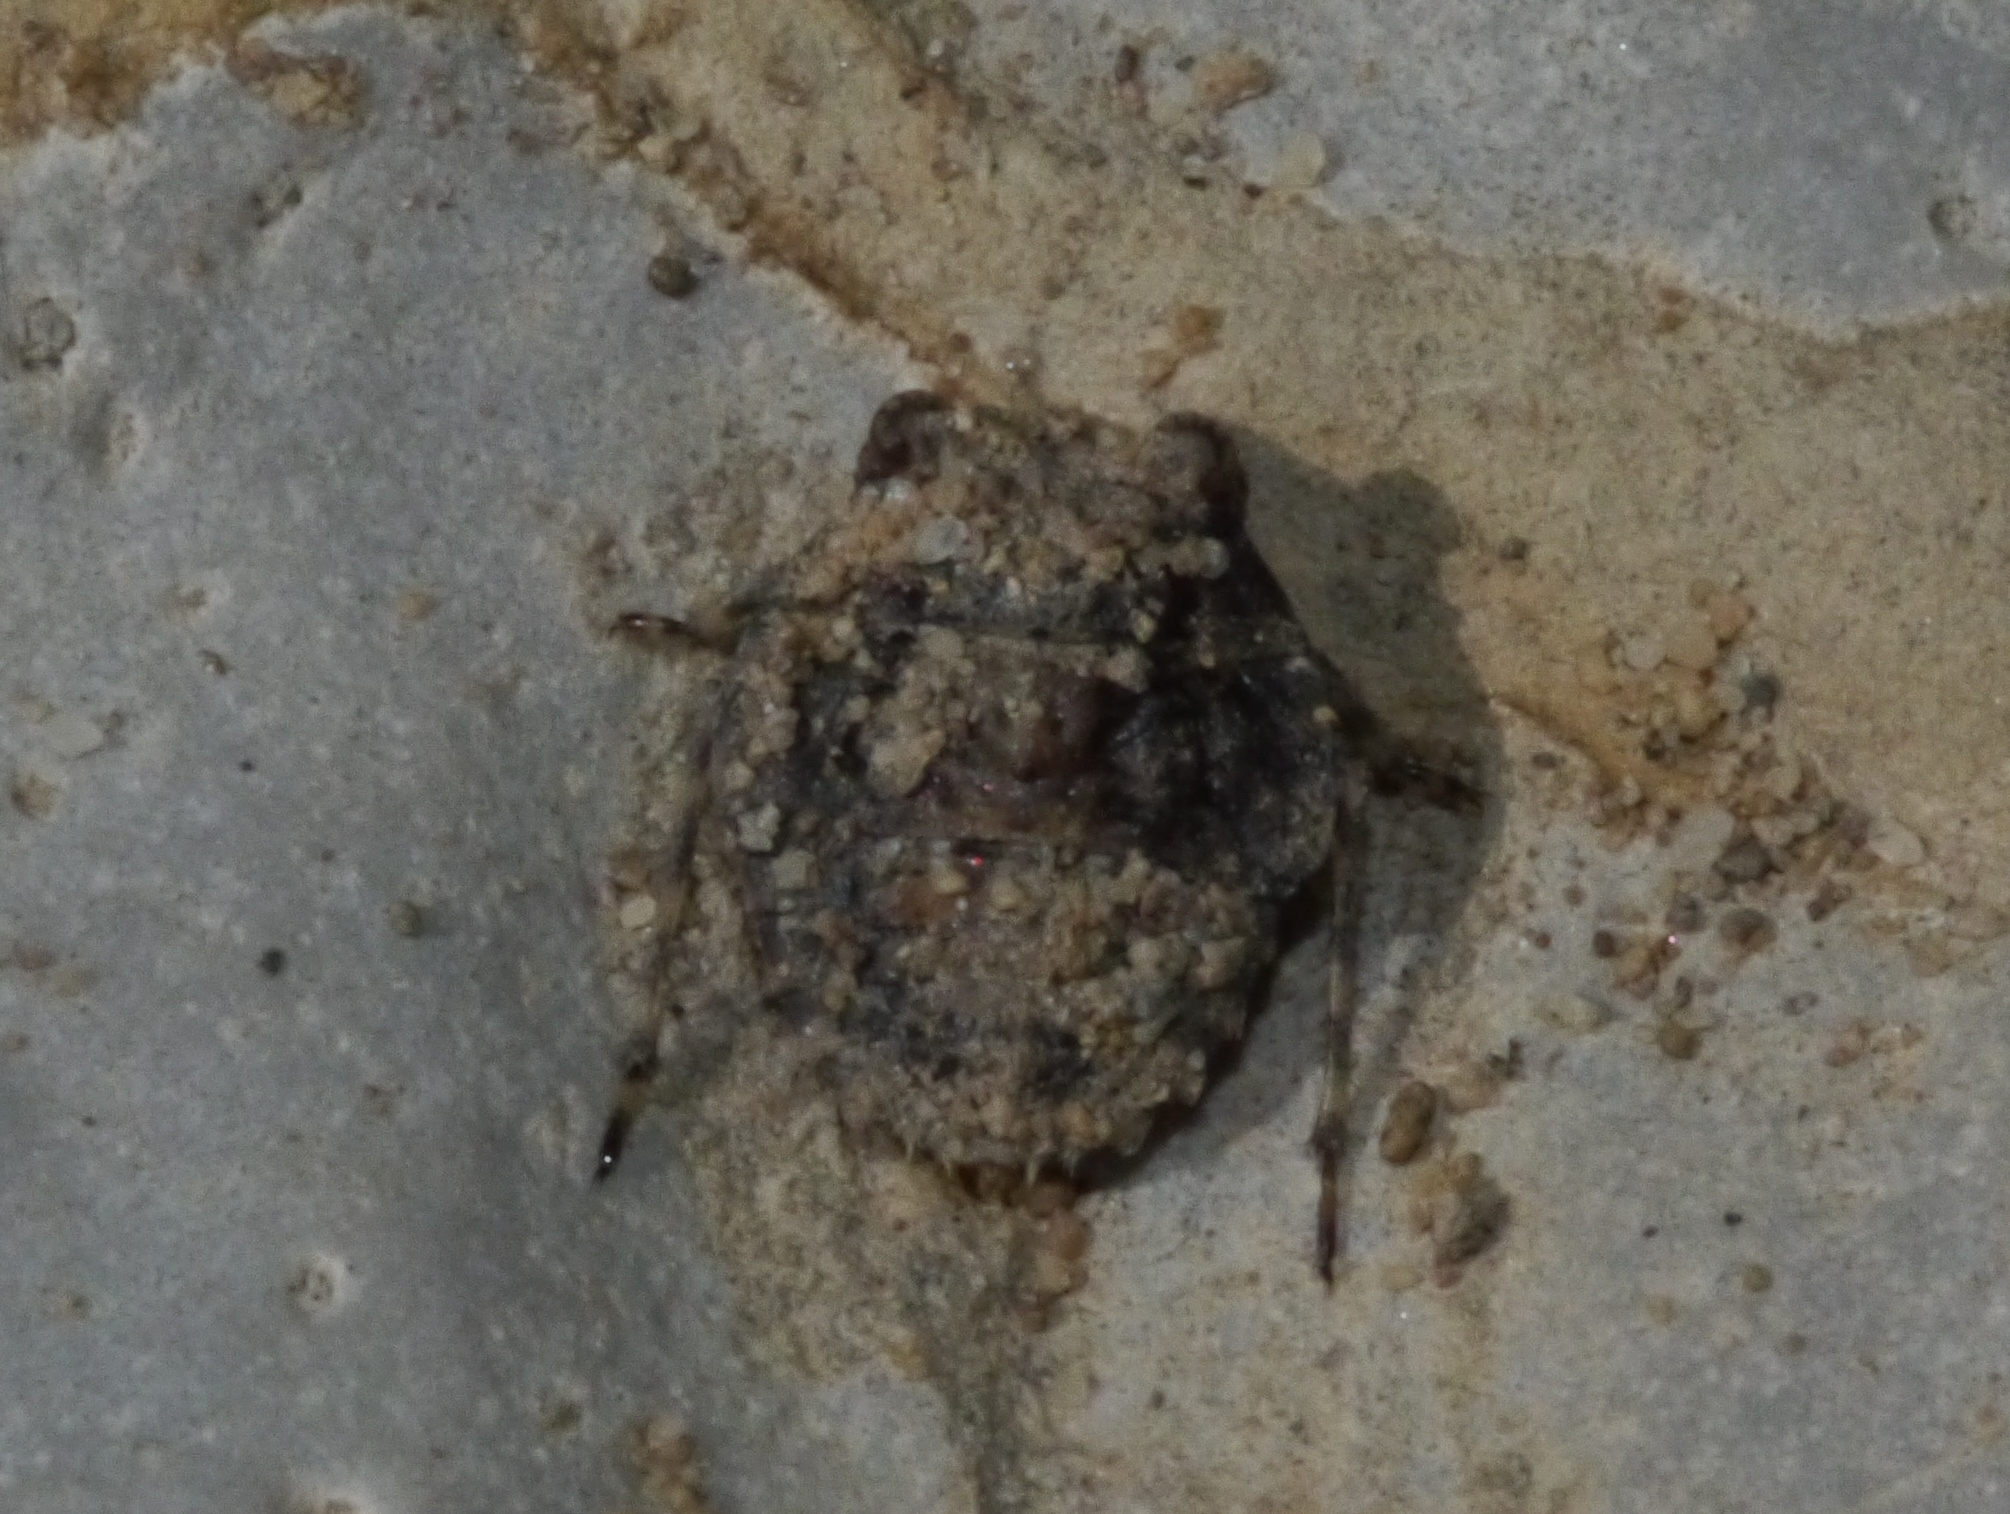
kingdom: Animalia
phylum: Arthropoda
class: Insecta
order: Hemiptera
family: Gelastocoridae
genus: Gelastocoris
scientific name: Gelastocoris oculatus
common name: Toad bug
